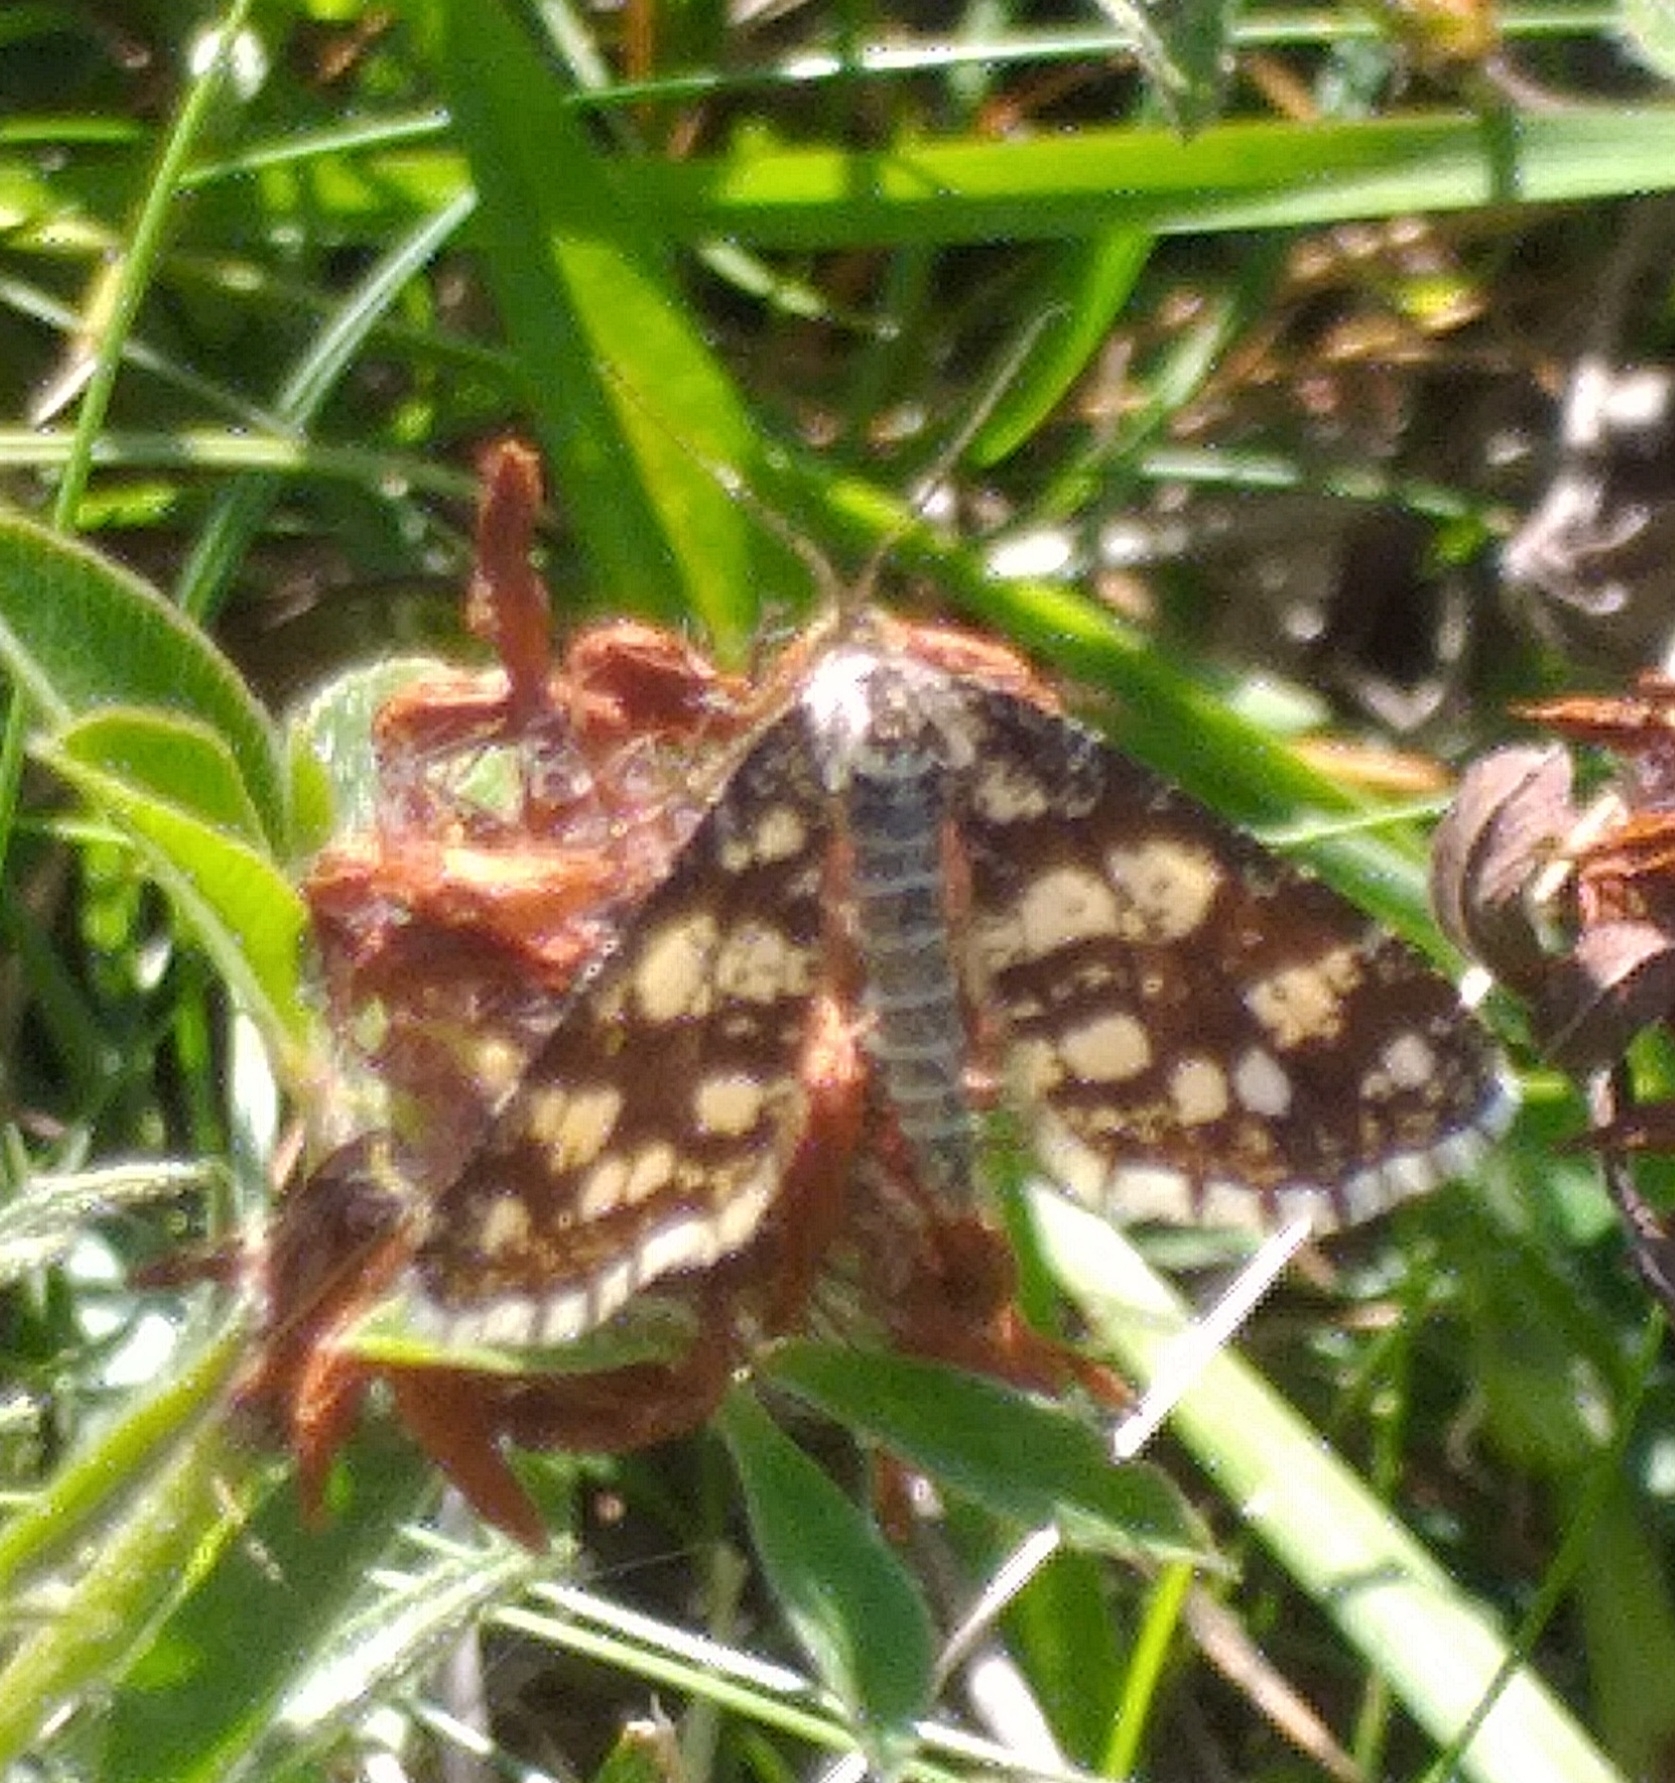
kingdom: Animalia
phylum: Arthropoda
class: Insecta
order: Lepidoptera
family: Geometridae
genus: Chiasmia
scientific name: Chiasmia clathrata
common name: Latticed heath
